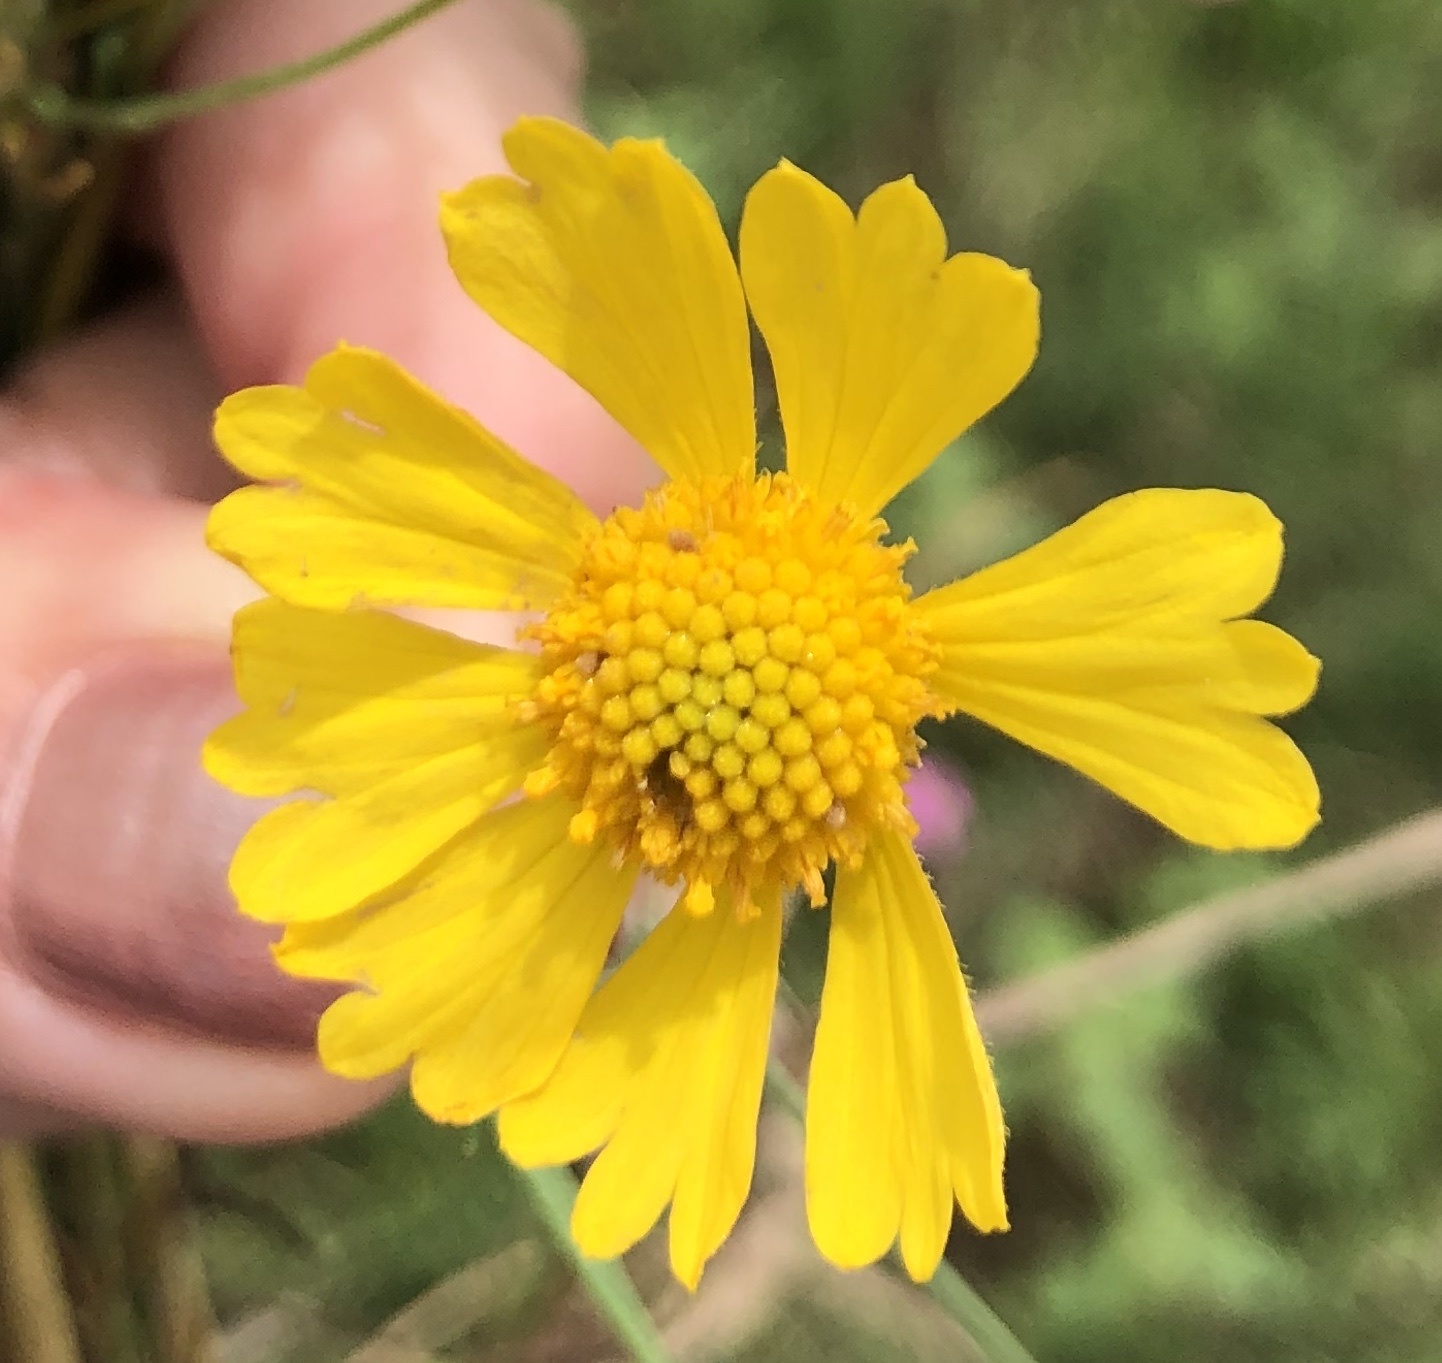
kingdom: Plantae
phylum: Tracheophyta
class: Magnoliopsida
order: Asterales
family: Asteraceae
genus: Helenium
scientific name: Helenium amarum
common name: Bitter sneezeweed
